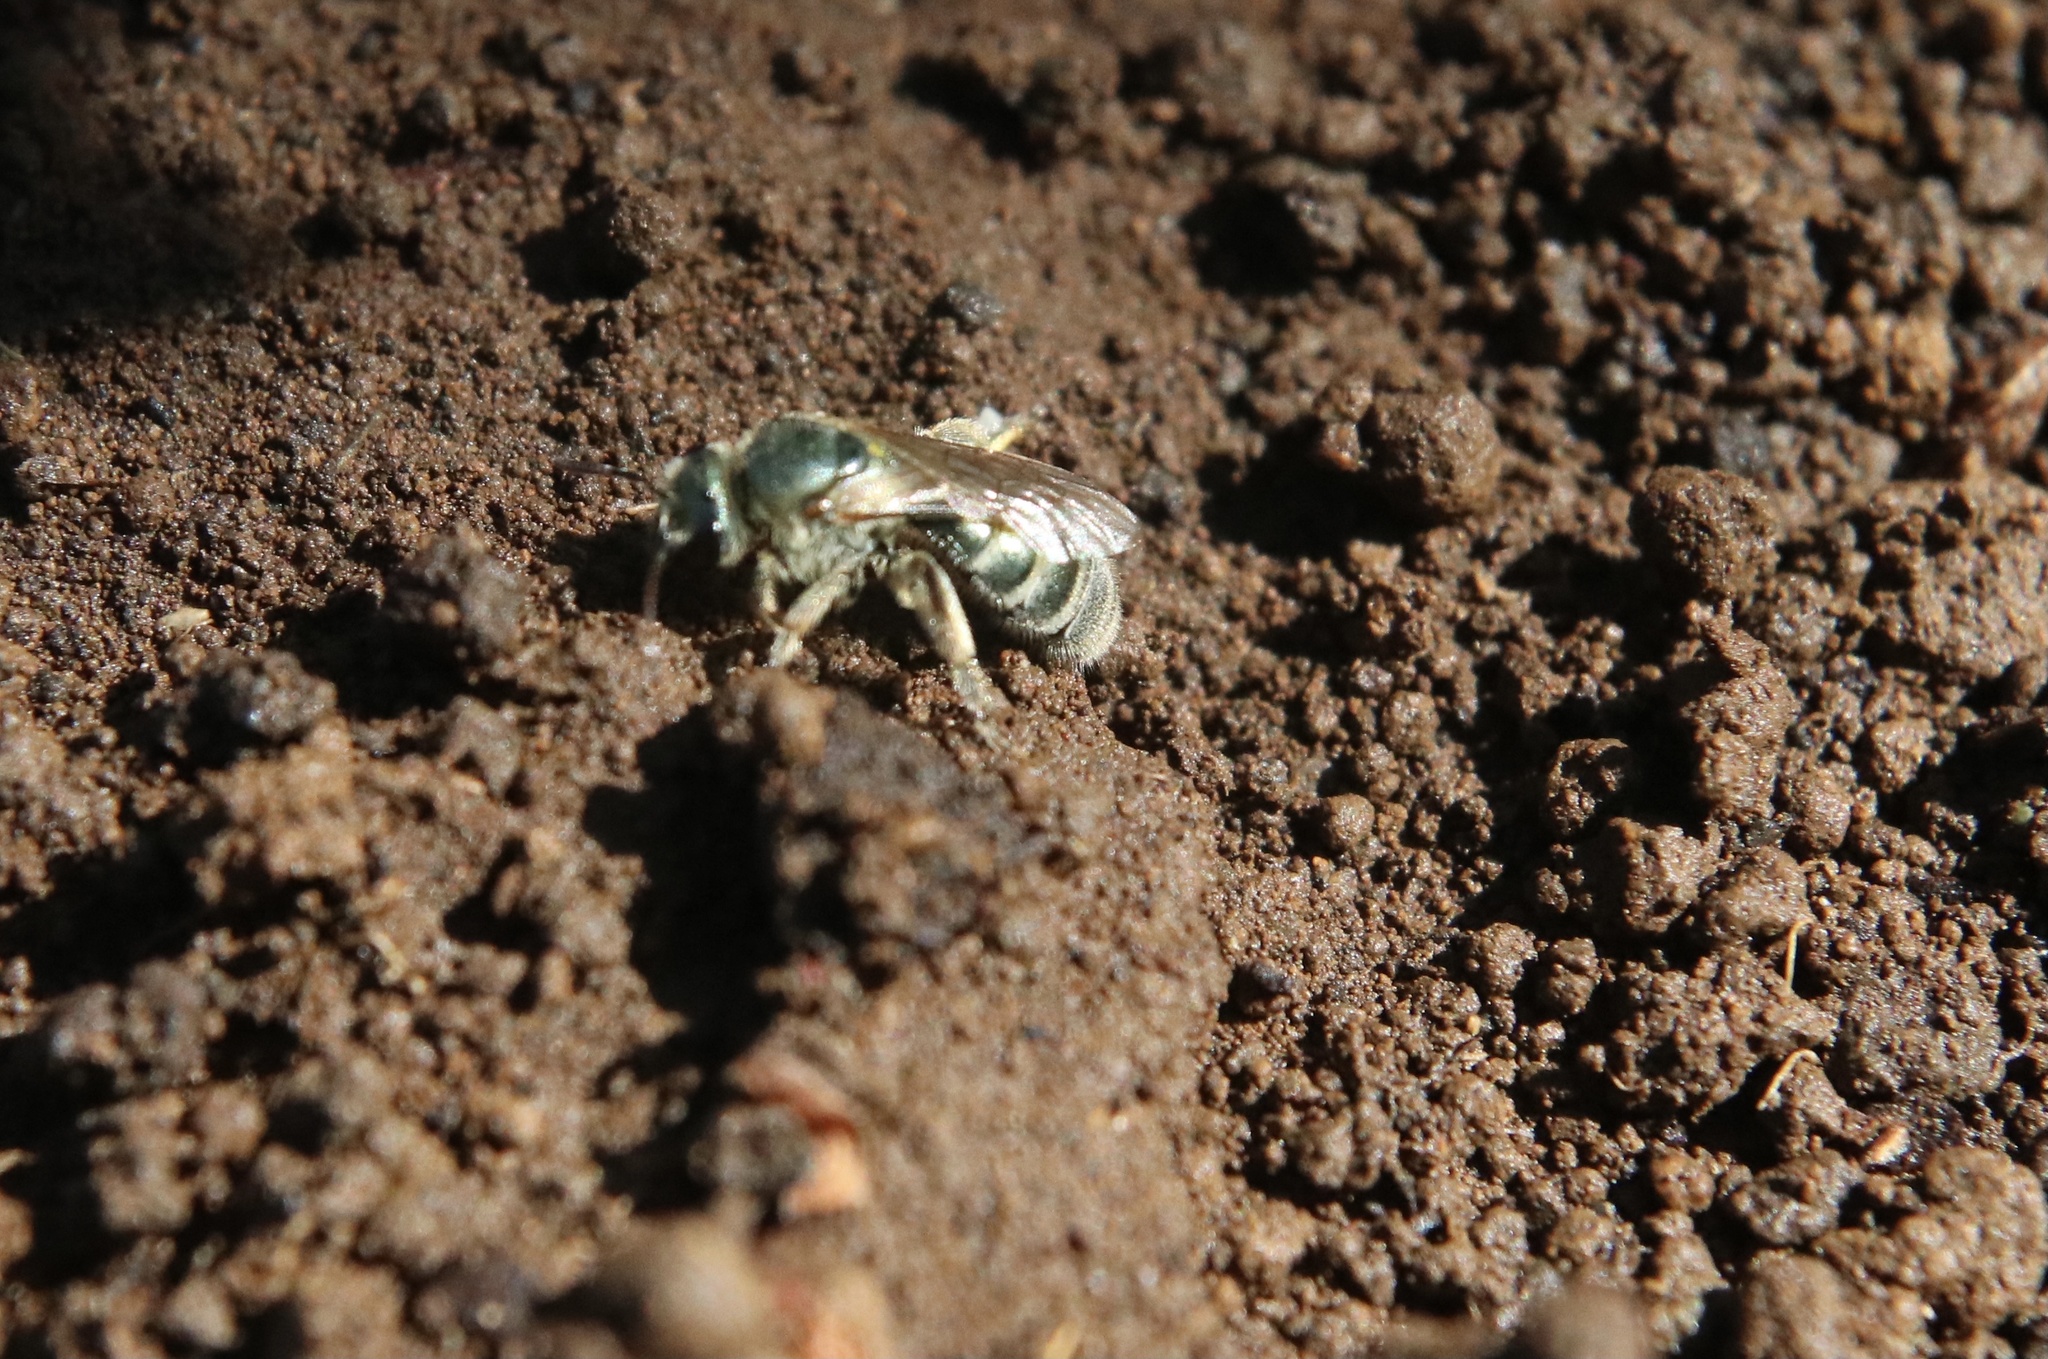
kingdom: Animalia
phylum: Arthropoda
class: Insecta
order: Hymenoptera
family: Halictidae
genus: Pseudagapostemon
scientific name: Pseudagapostemon citricornis
